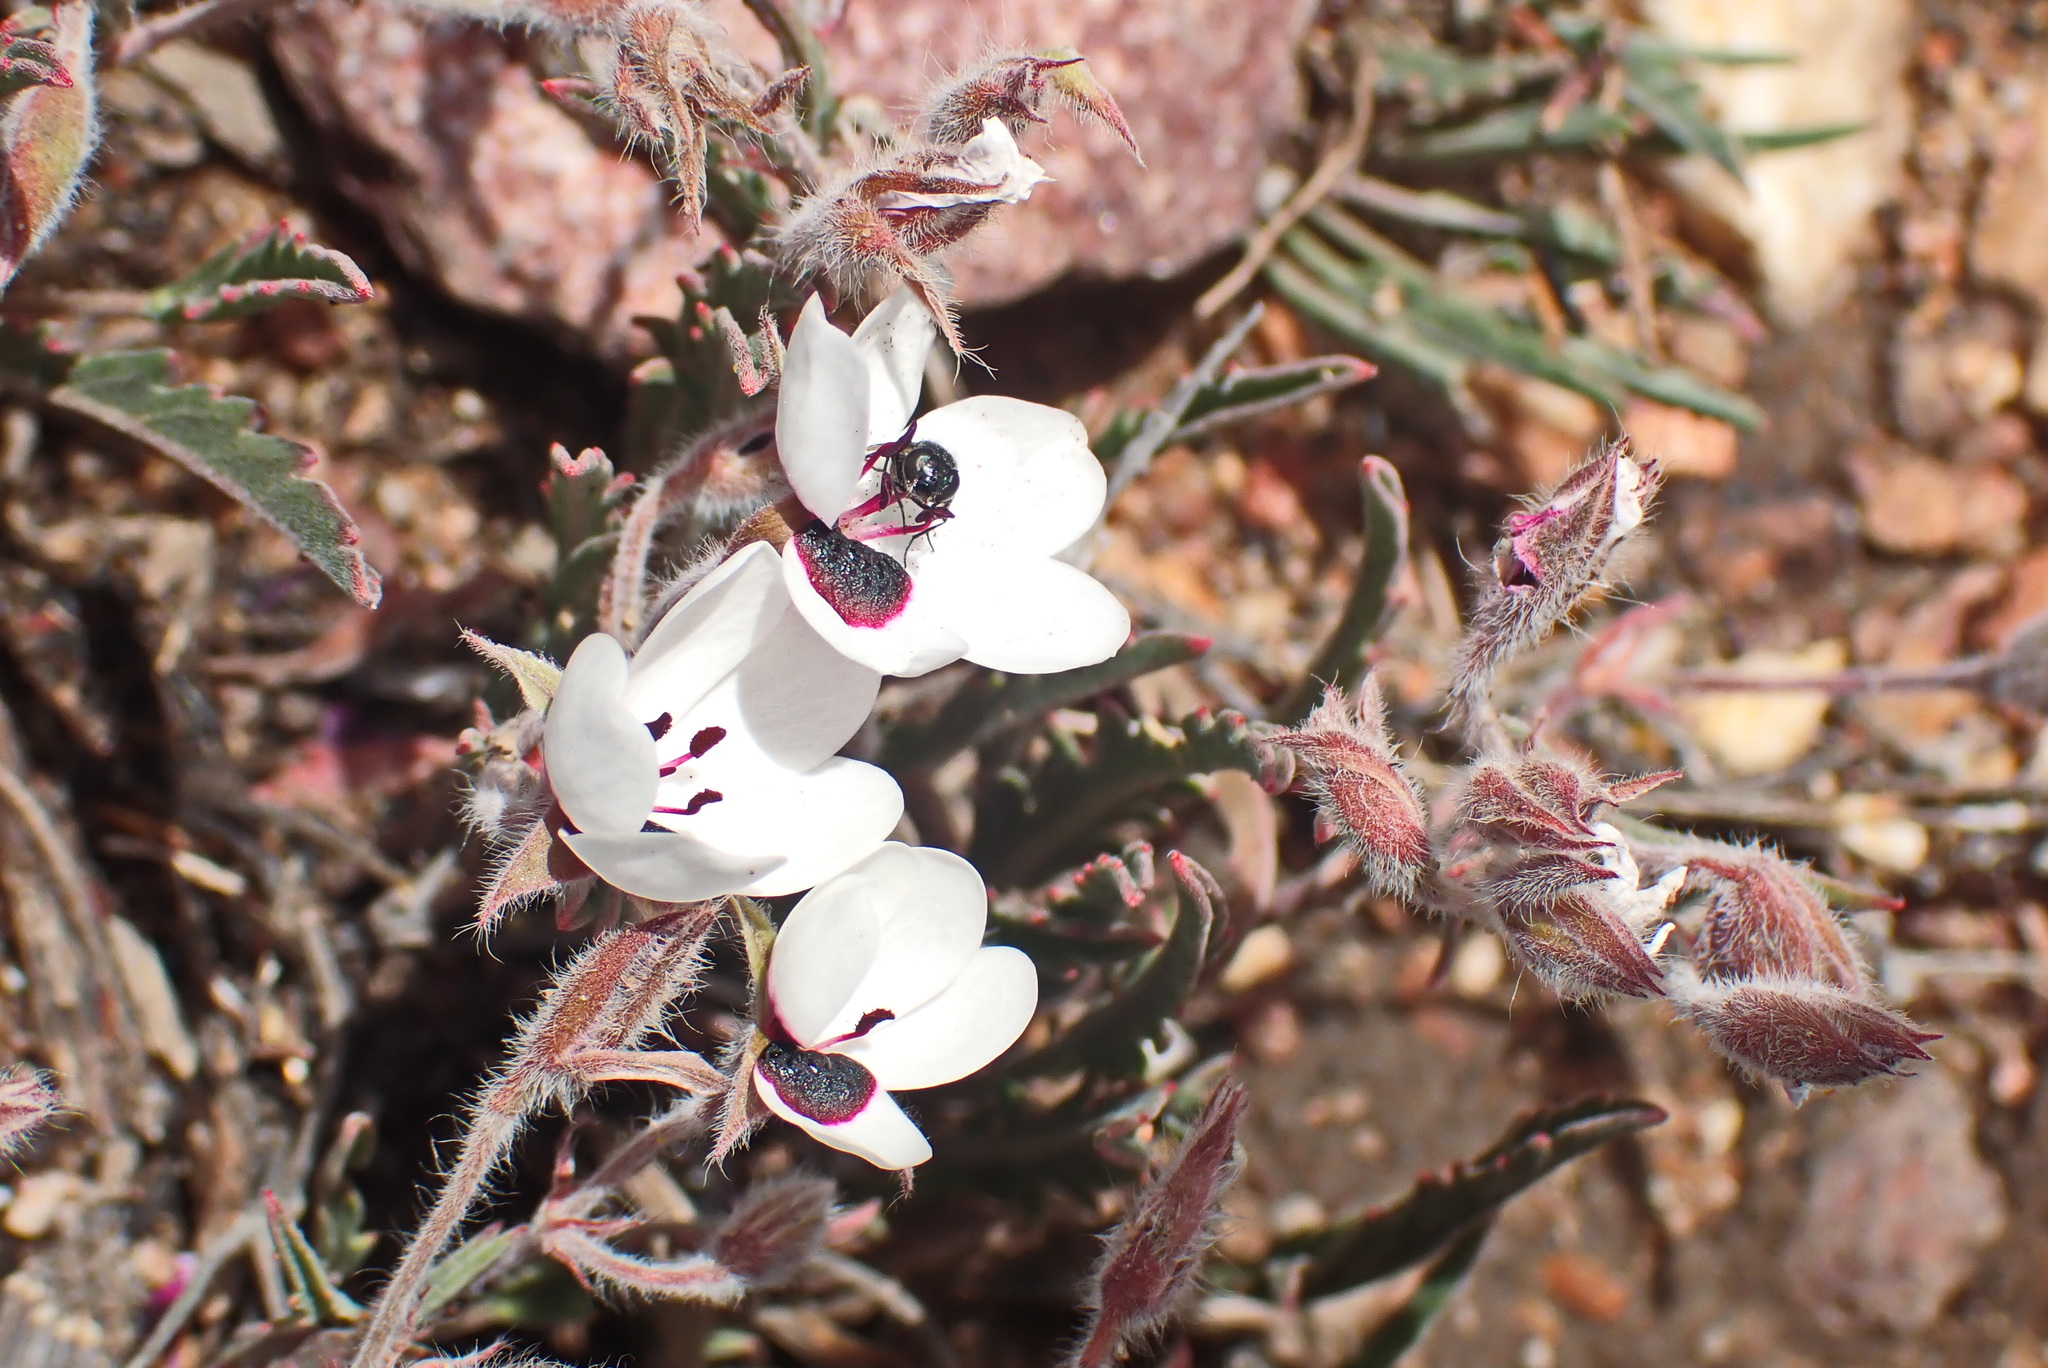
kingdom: Plantae
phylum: Tracheophyta
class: Magnoliopsida
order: Geraniales
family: Geraniaceae
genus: Pelargonium
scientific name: Pelargonium tricolor
